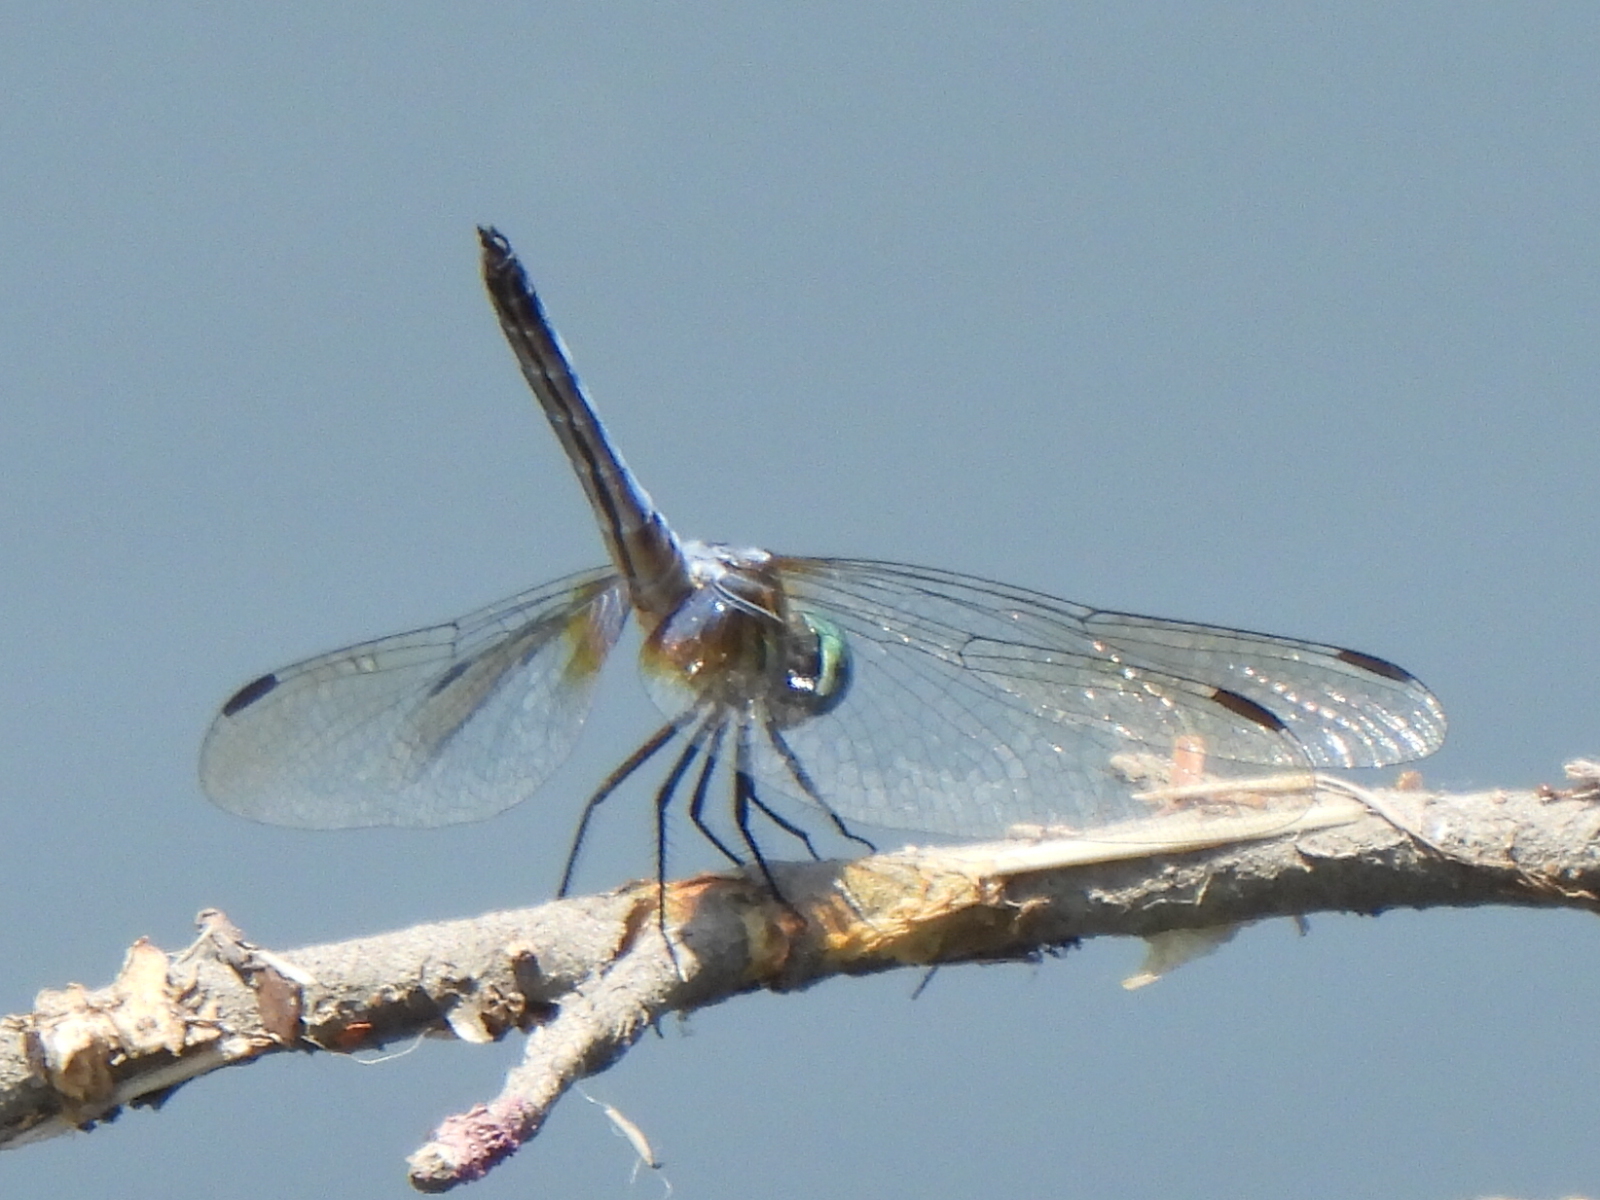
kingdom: Animalia
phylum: Arthropoda
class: Insecta
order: Odonata
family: Libellulidae
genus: Pachydiplax
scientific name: Pachydiplax longipennis
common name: Blue dasher
